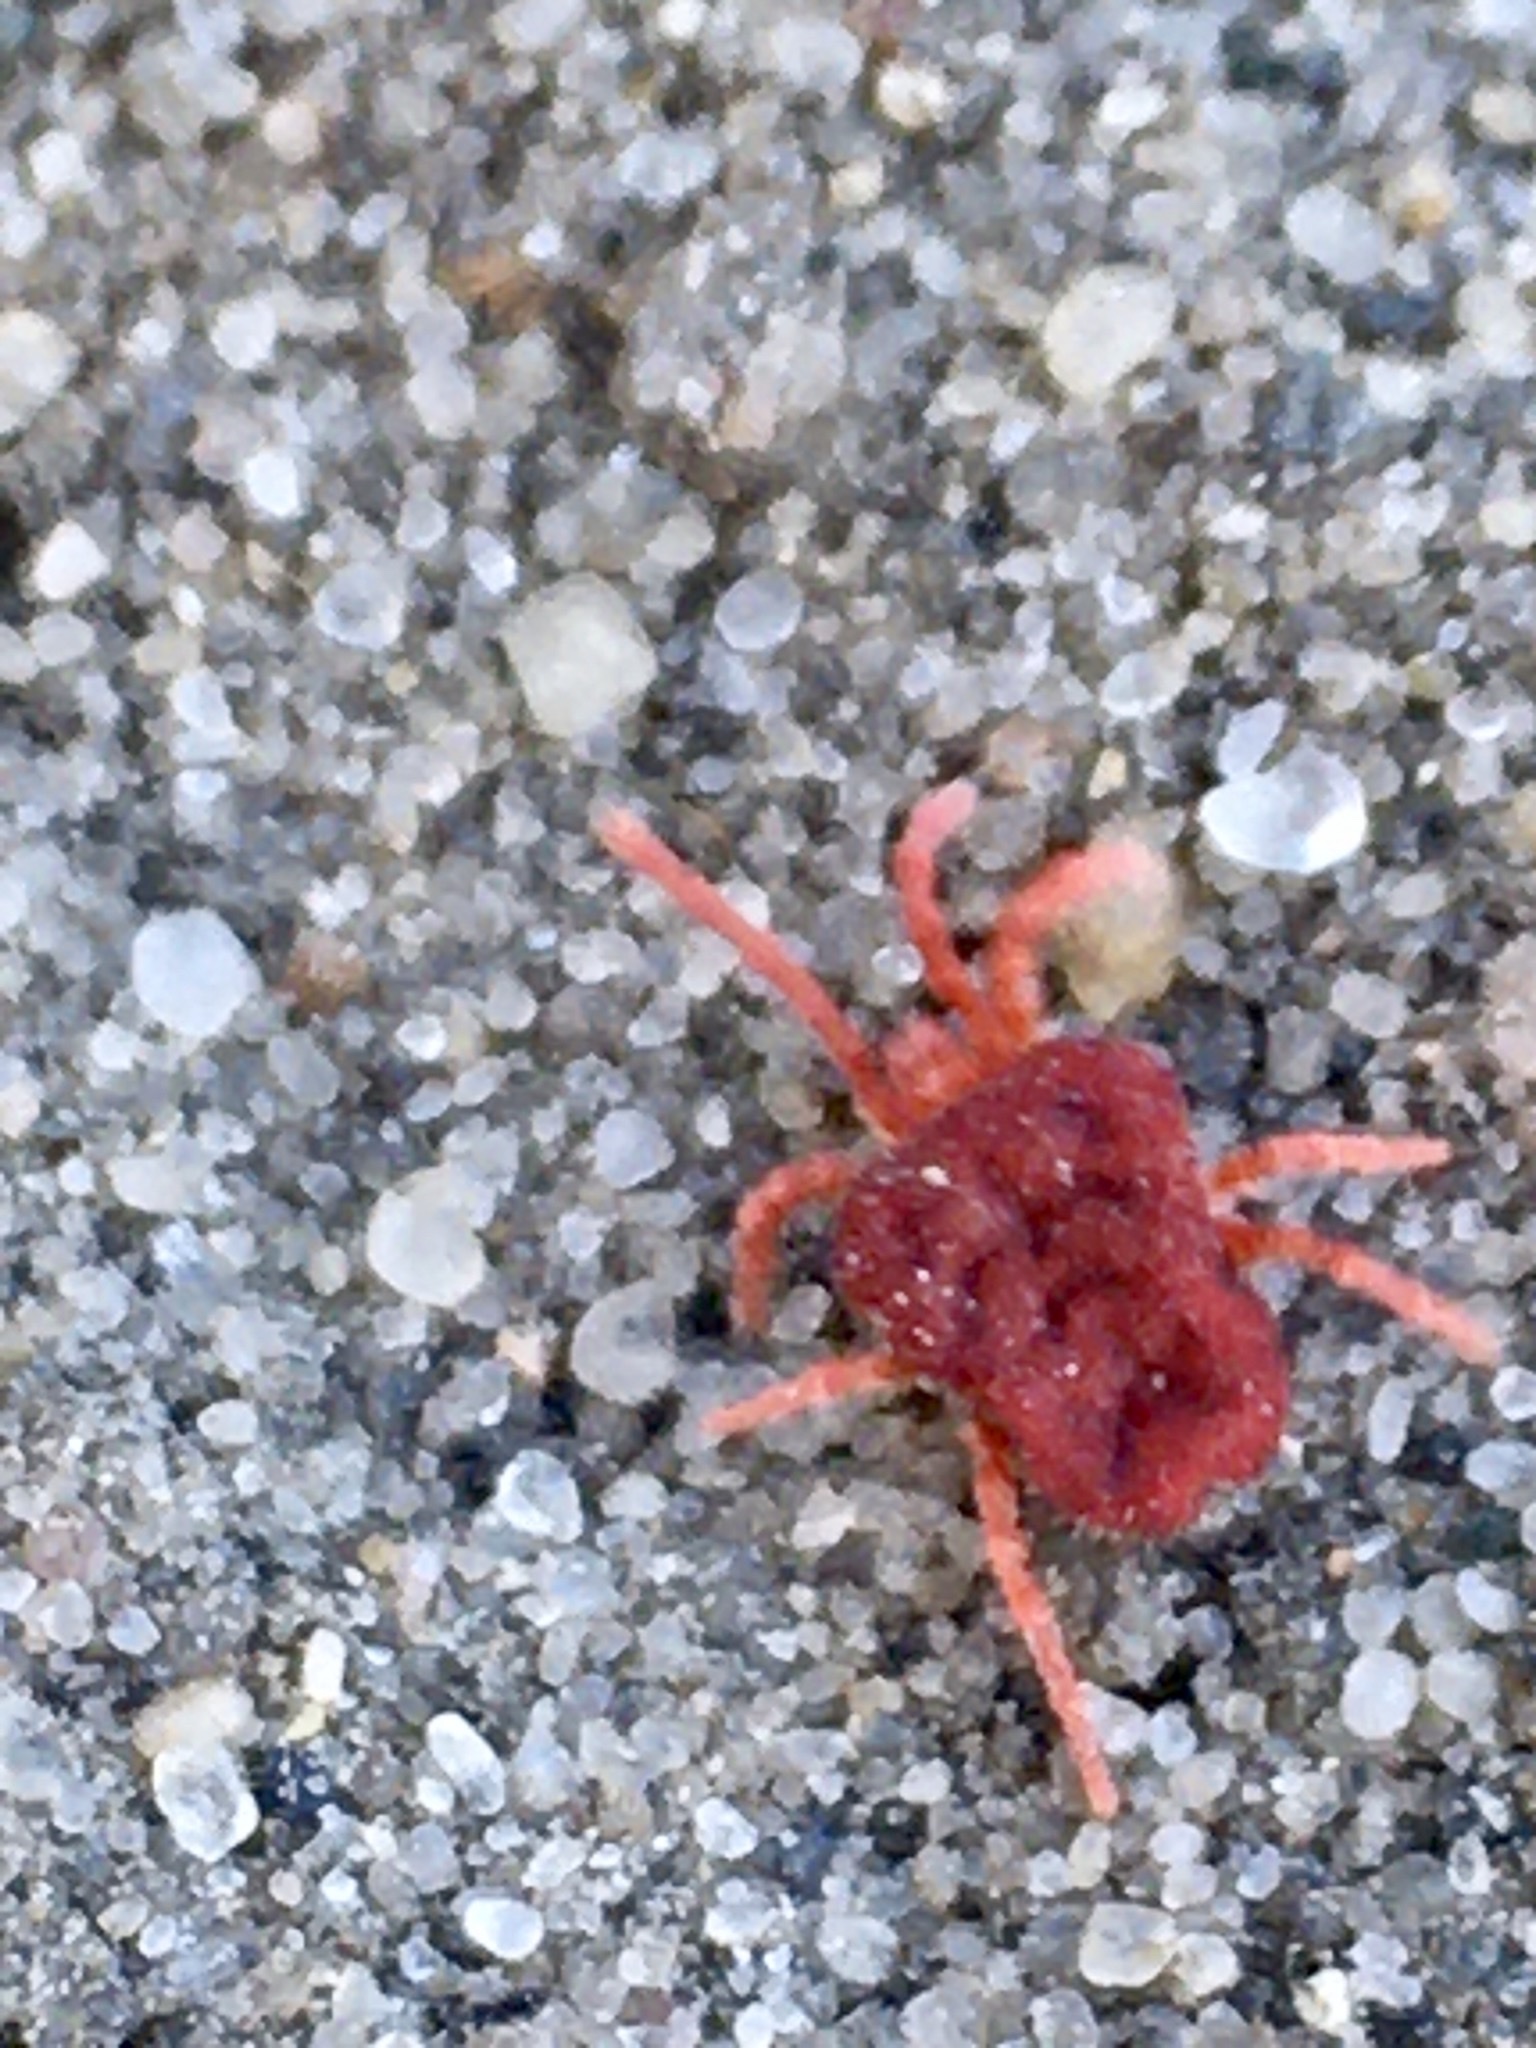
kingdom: Animalia
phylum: Arthropoda
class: Arachnida
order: Trombidiformes
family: Trombidiidae
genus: Trombidium
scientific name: Trombidium holosericeum
